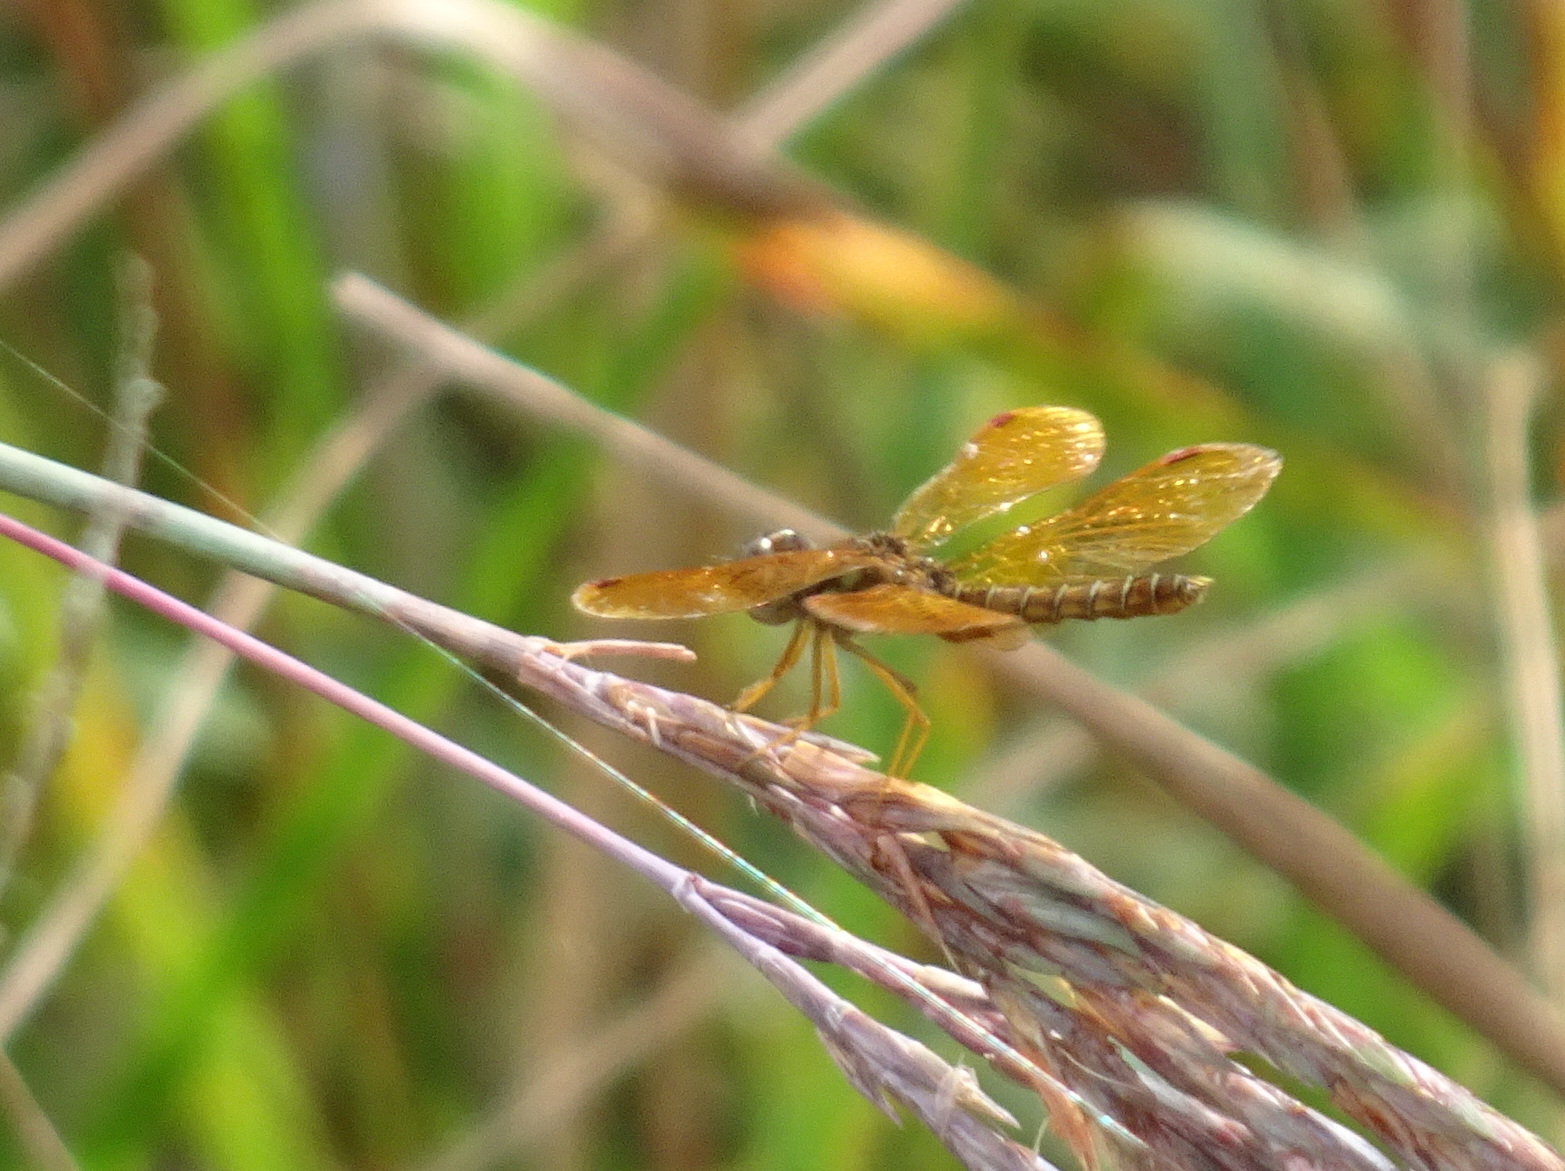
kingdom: Animalia
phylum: Arthropoda
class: Insecta
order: Odonata
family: Libellulidae
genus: Perithemis
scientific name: Perithemis tenera
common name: Eastern amberwing
